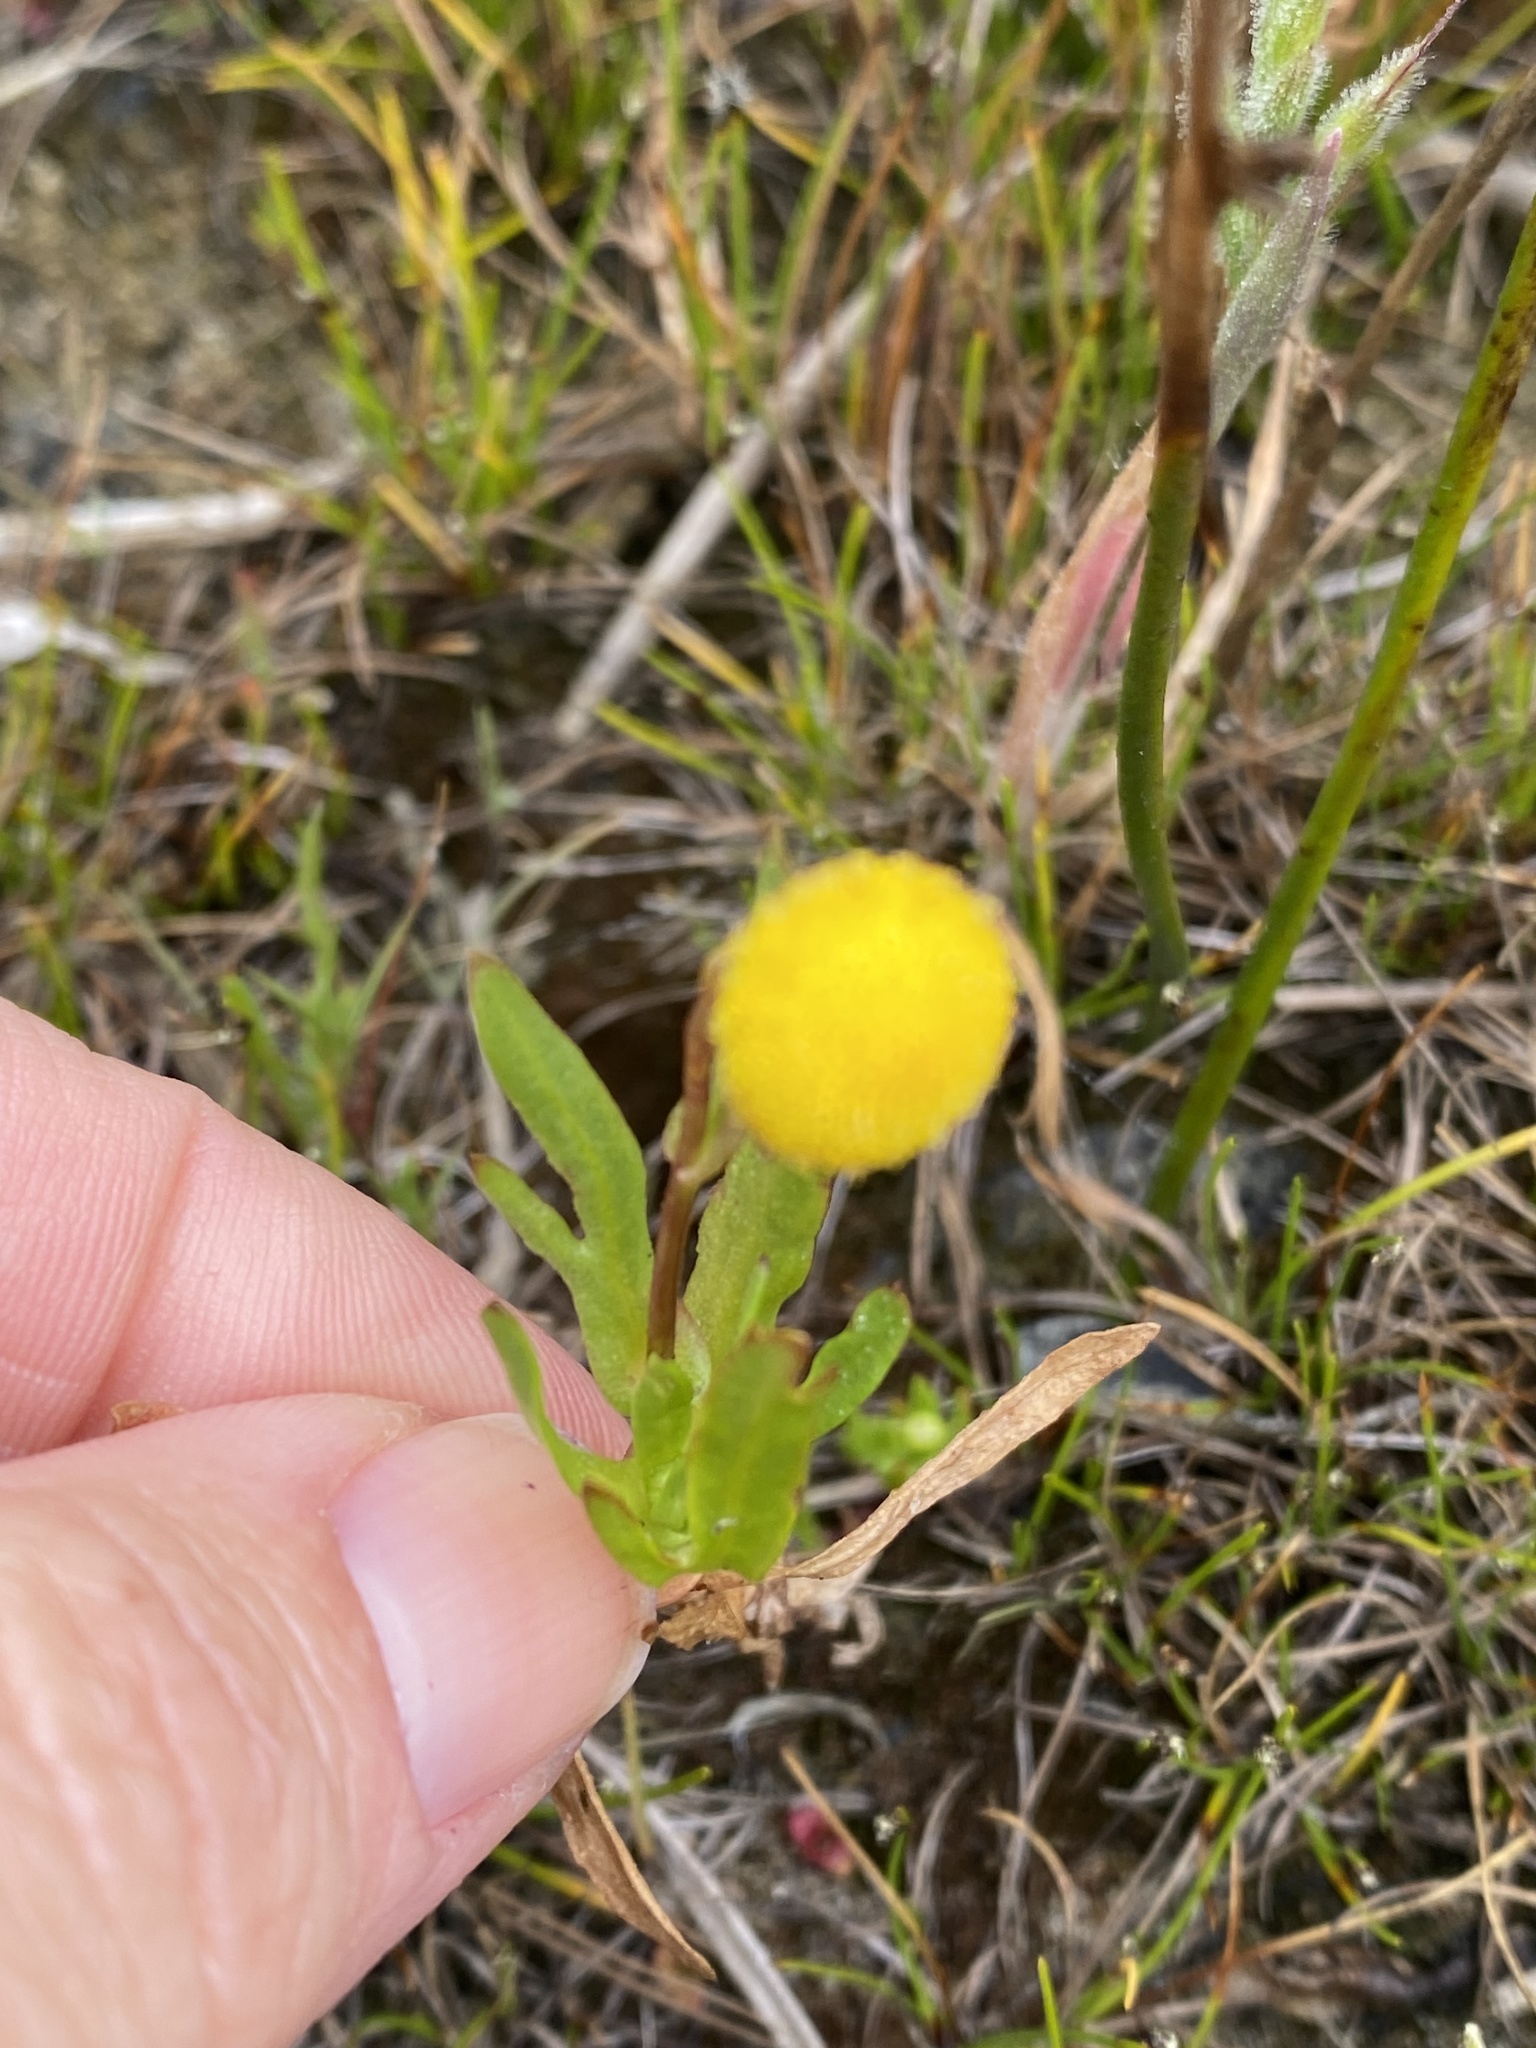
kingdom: Plantae
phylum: Tracheophyta
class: Magnoliopsida
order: Asterales
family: Asteraceae
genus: Cotula
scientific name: Cotula coronopifolia
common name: Buttonweed
